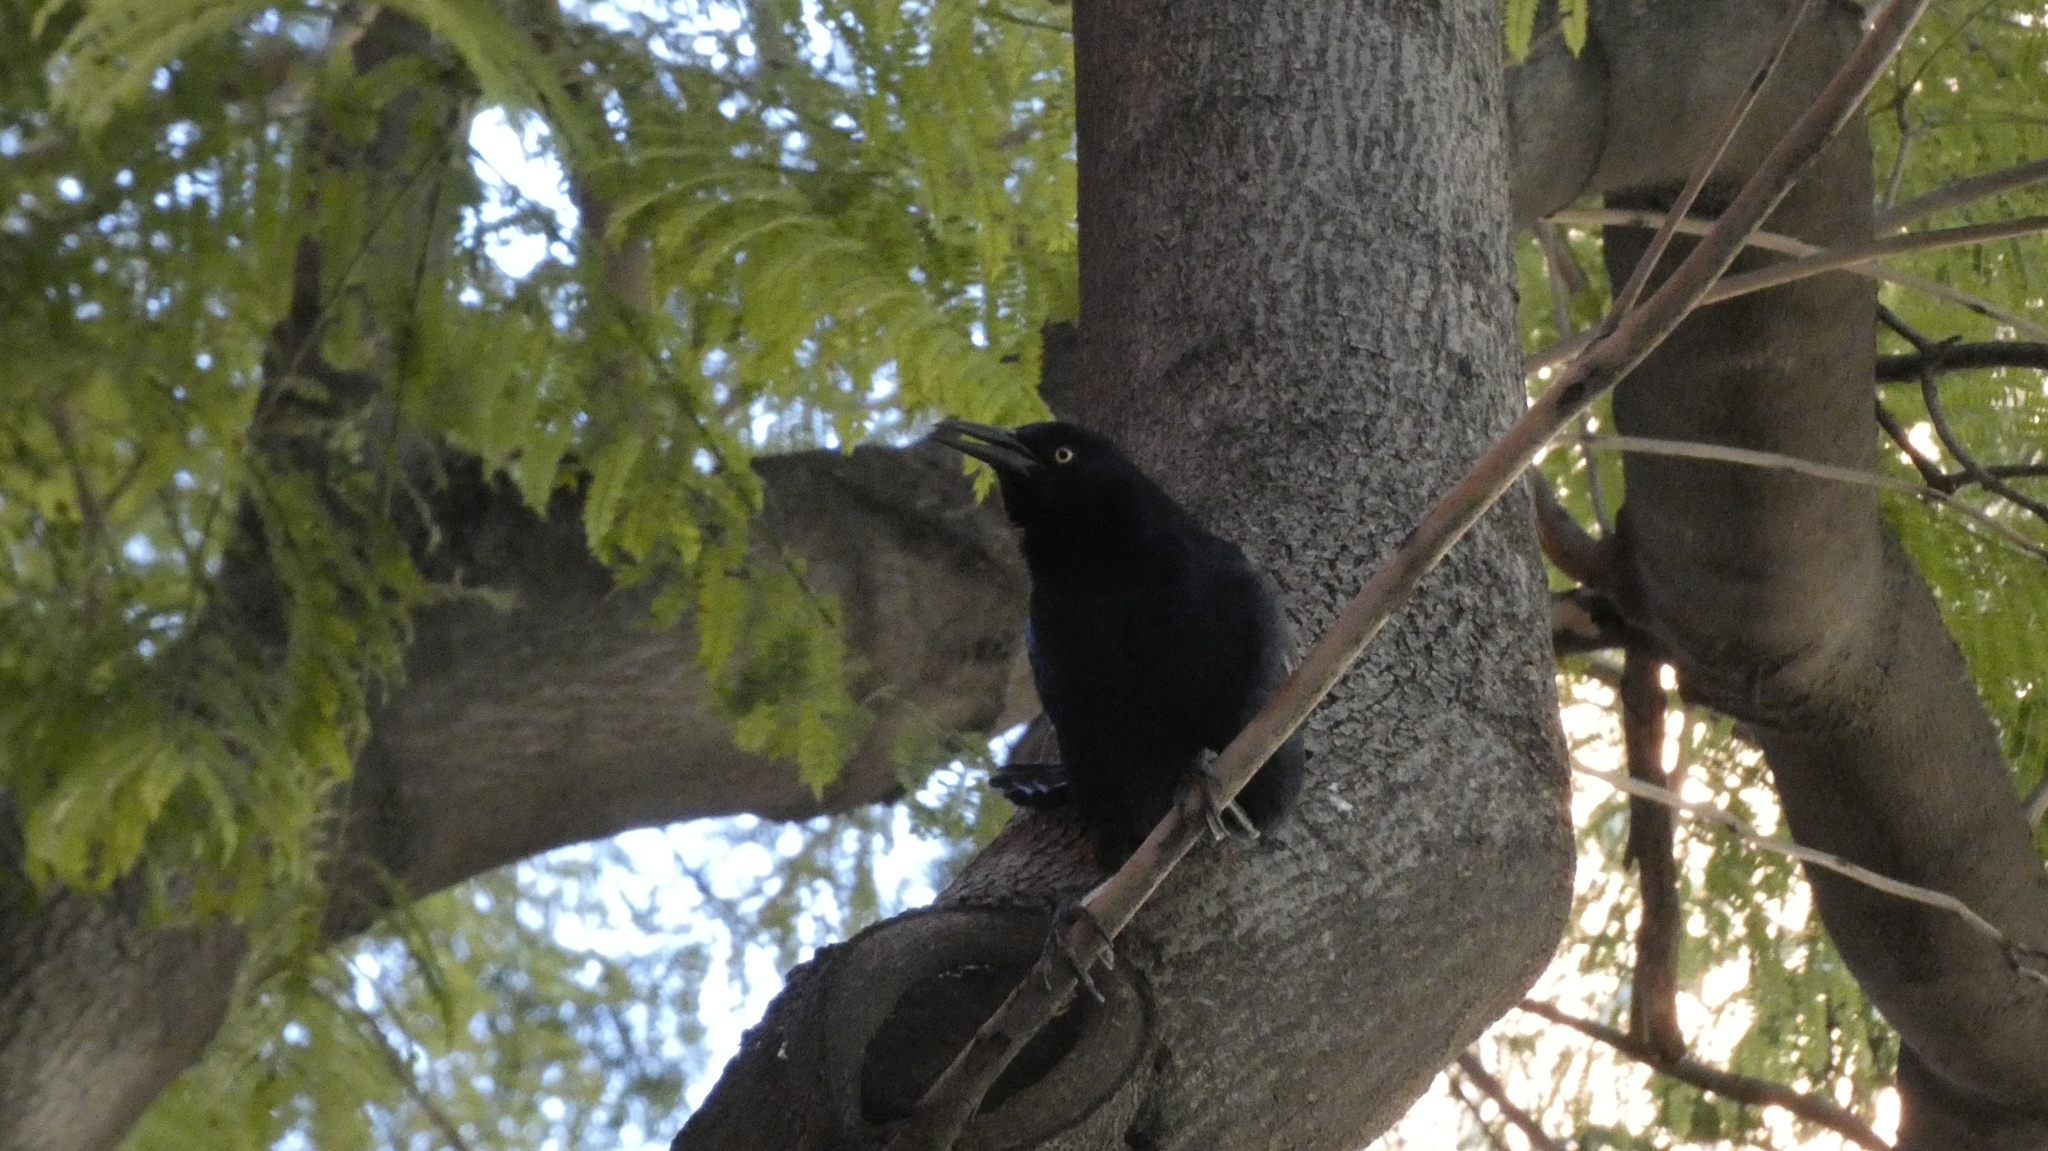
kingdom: Animalia
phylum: Chordata
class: Aves
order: Passeriformes
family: Icteridae
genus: Quiscalus
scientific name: Quiscalus mexicanus
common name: Great-tailed grackle
